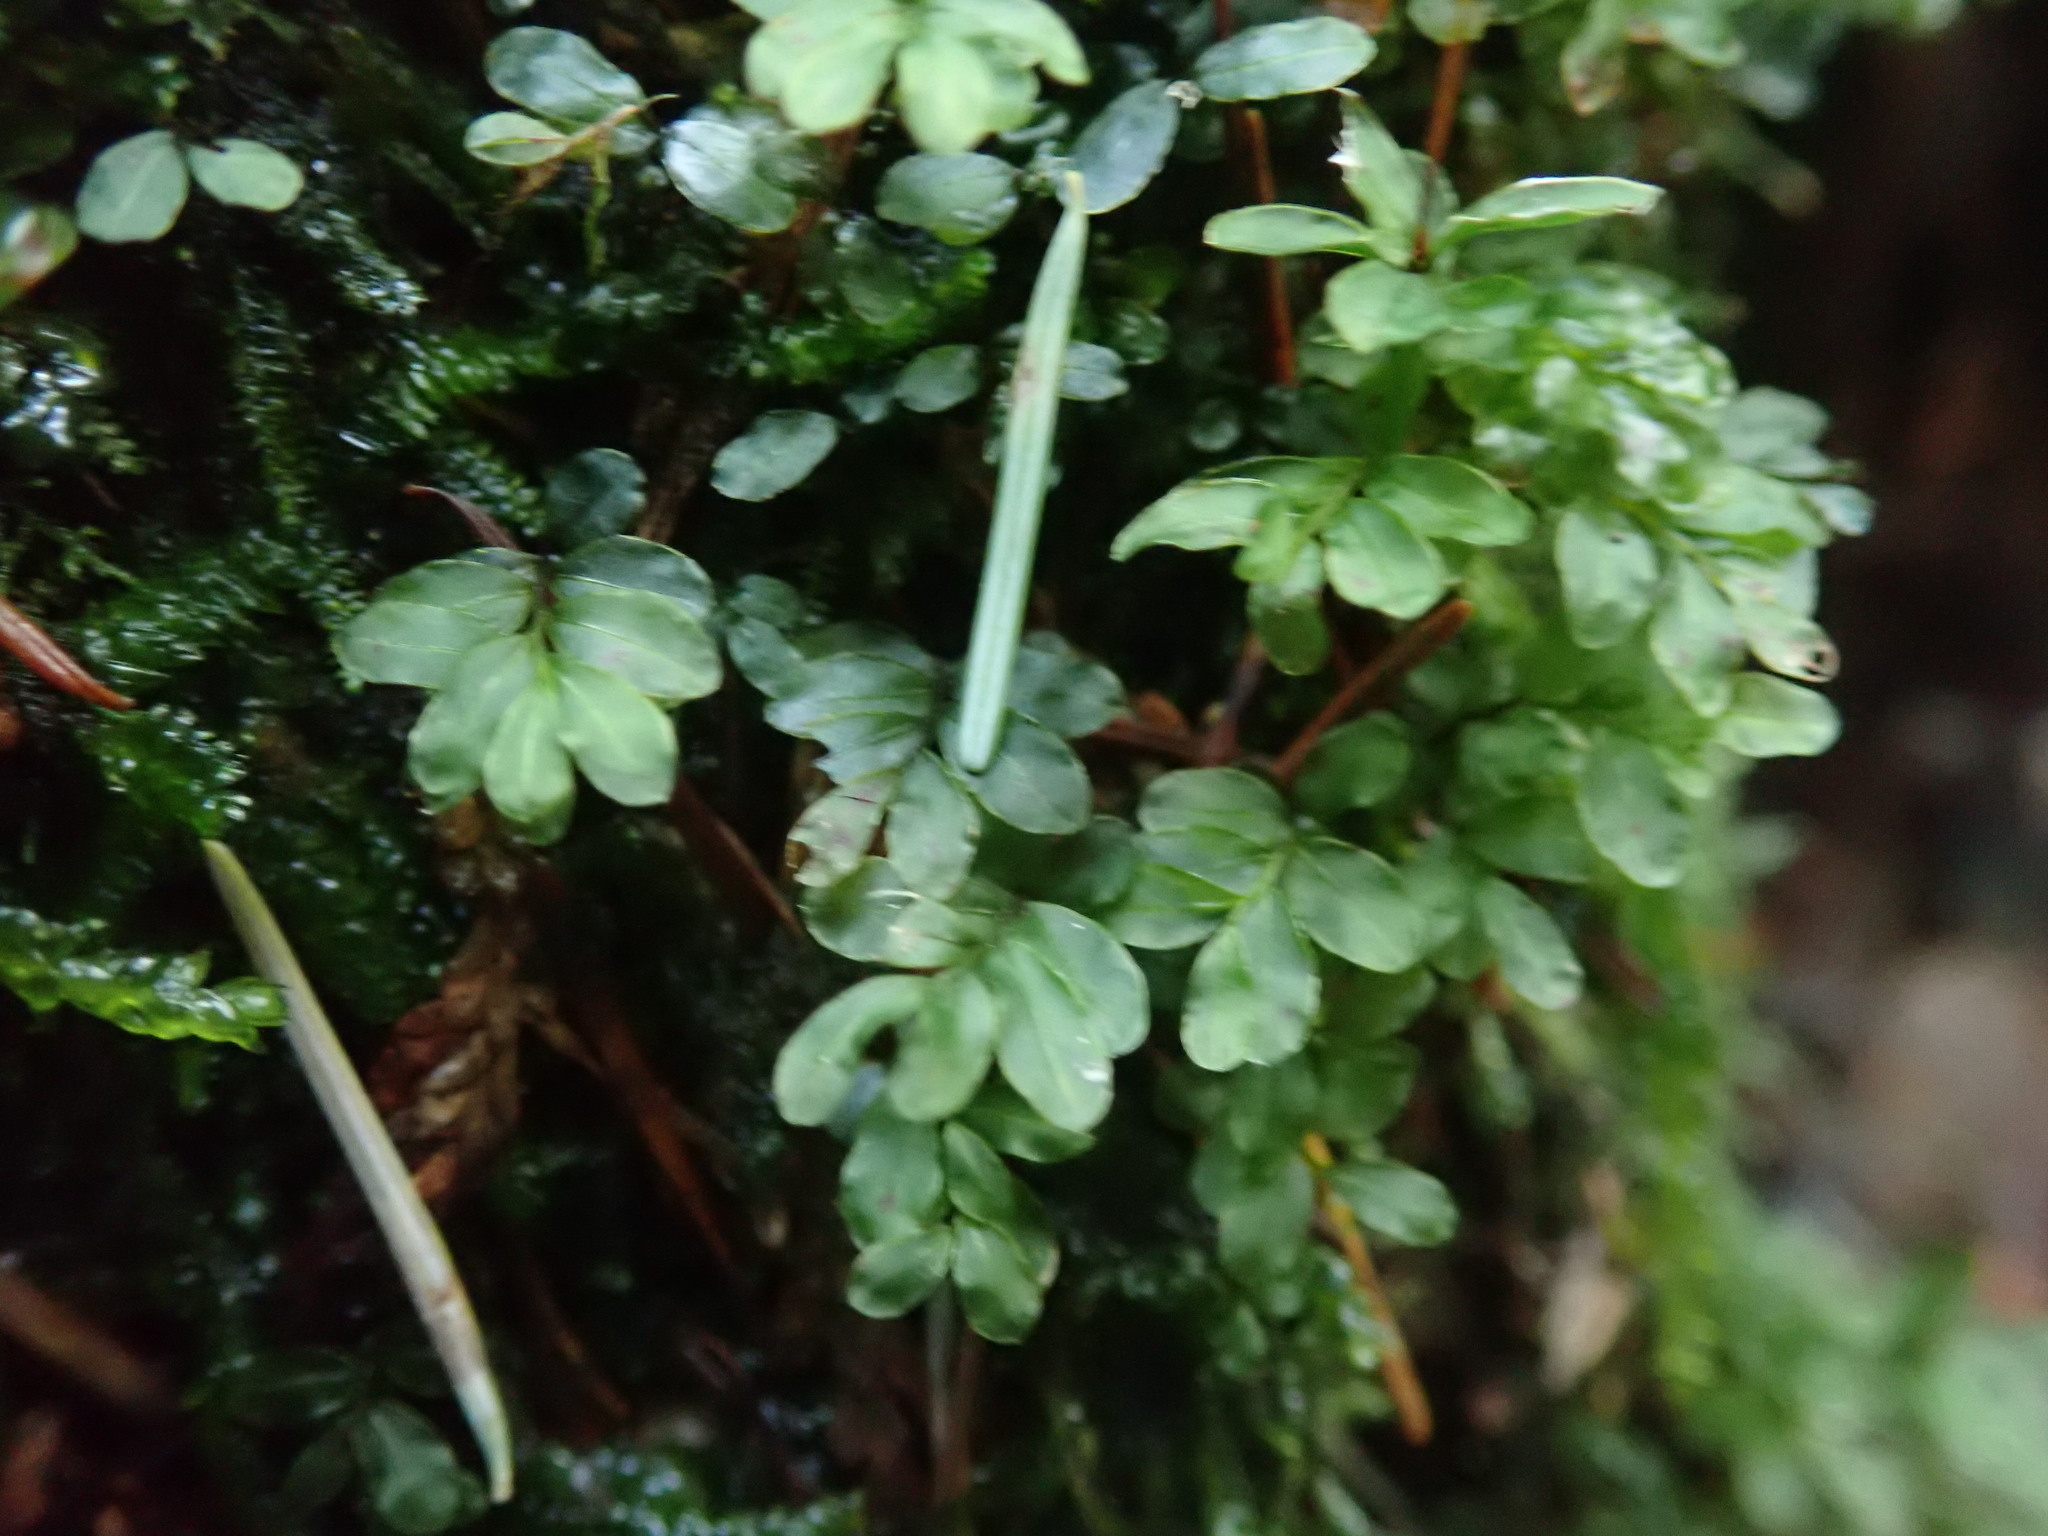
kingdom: Plantae
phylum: Bryophyta
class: Bryopsida
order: Bryales
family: Mniaceae
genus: Rhizomnium
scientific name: Rhizomnium glabrescens
